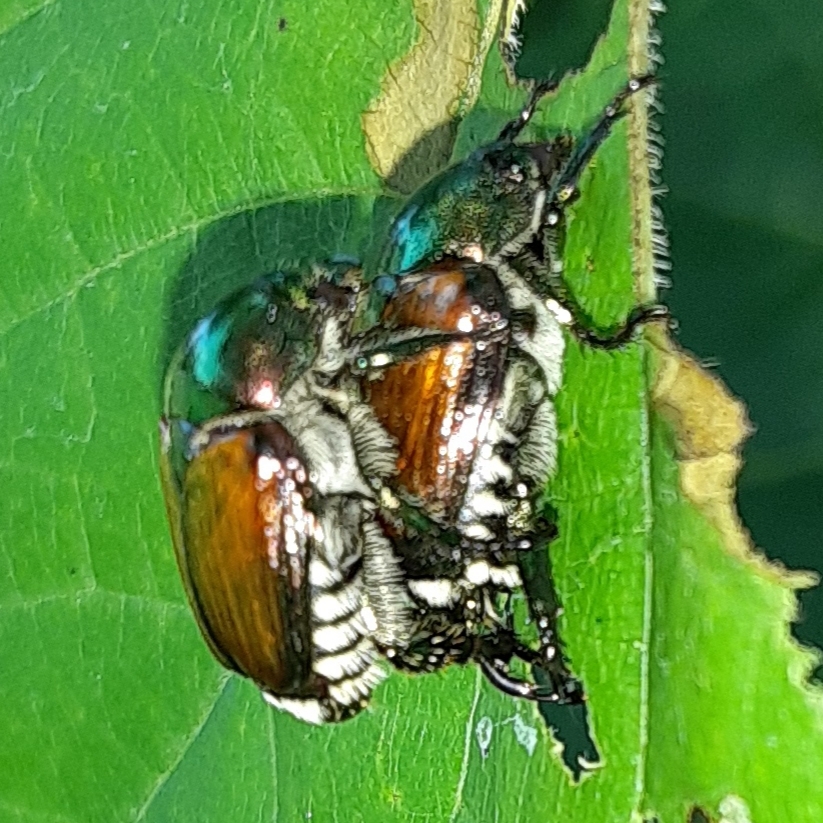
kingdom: Animalia
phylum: Arthropoda
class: Insecta
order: Coleoptera
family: Scarabaeidae
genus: Popillia
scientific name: Popillia japonica
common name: Japanese beetle
